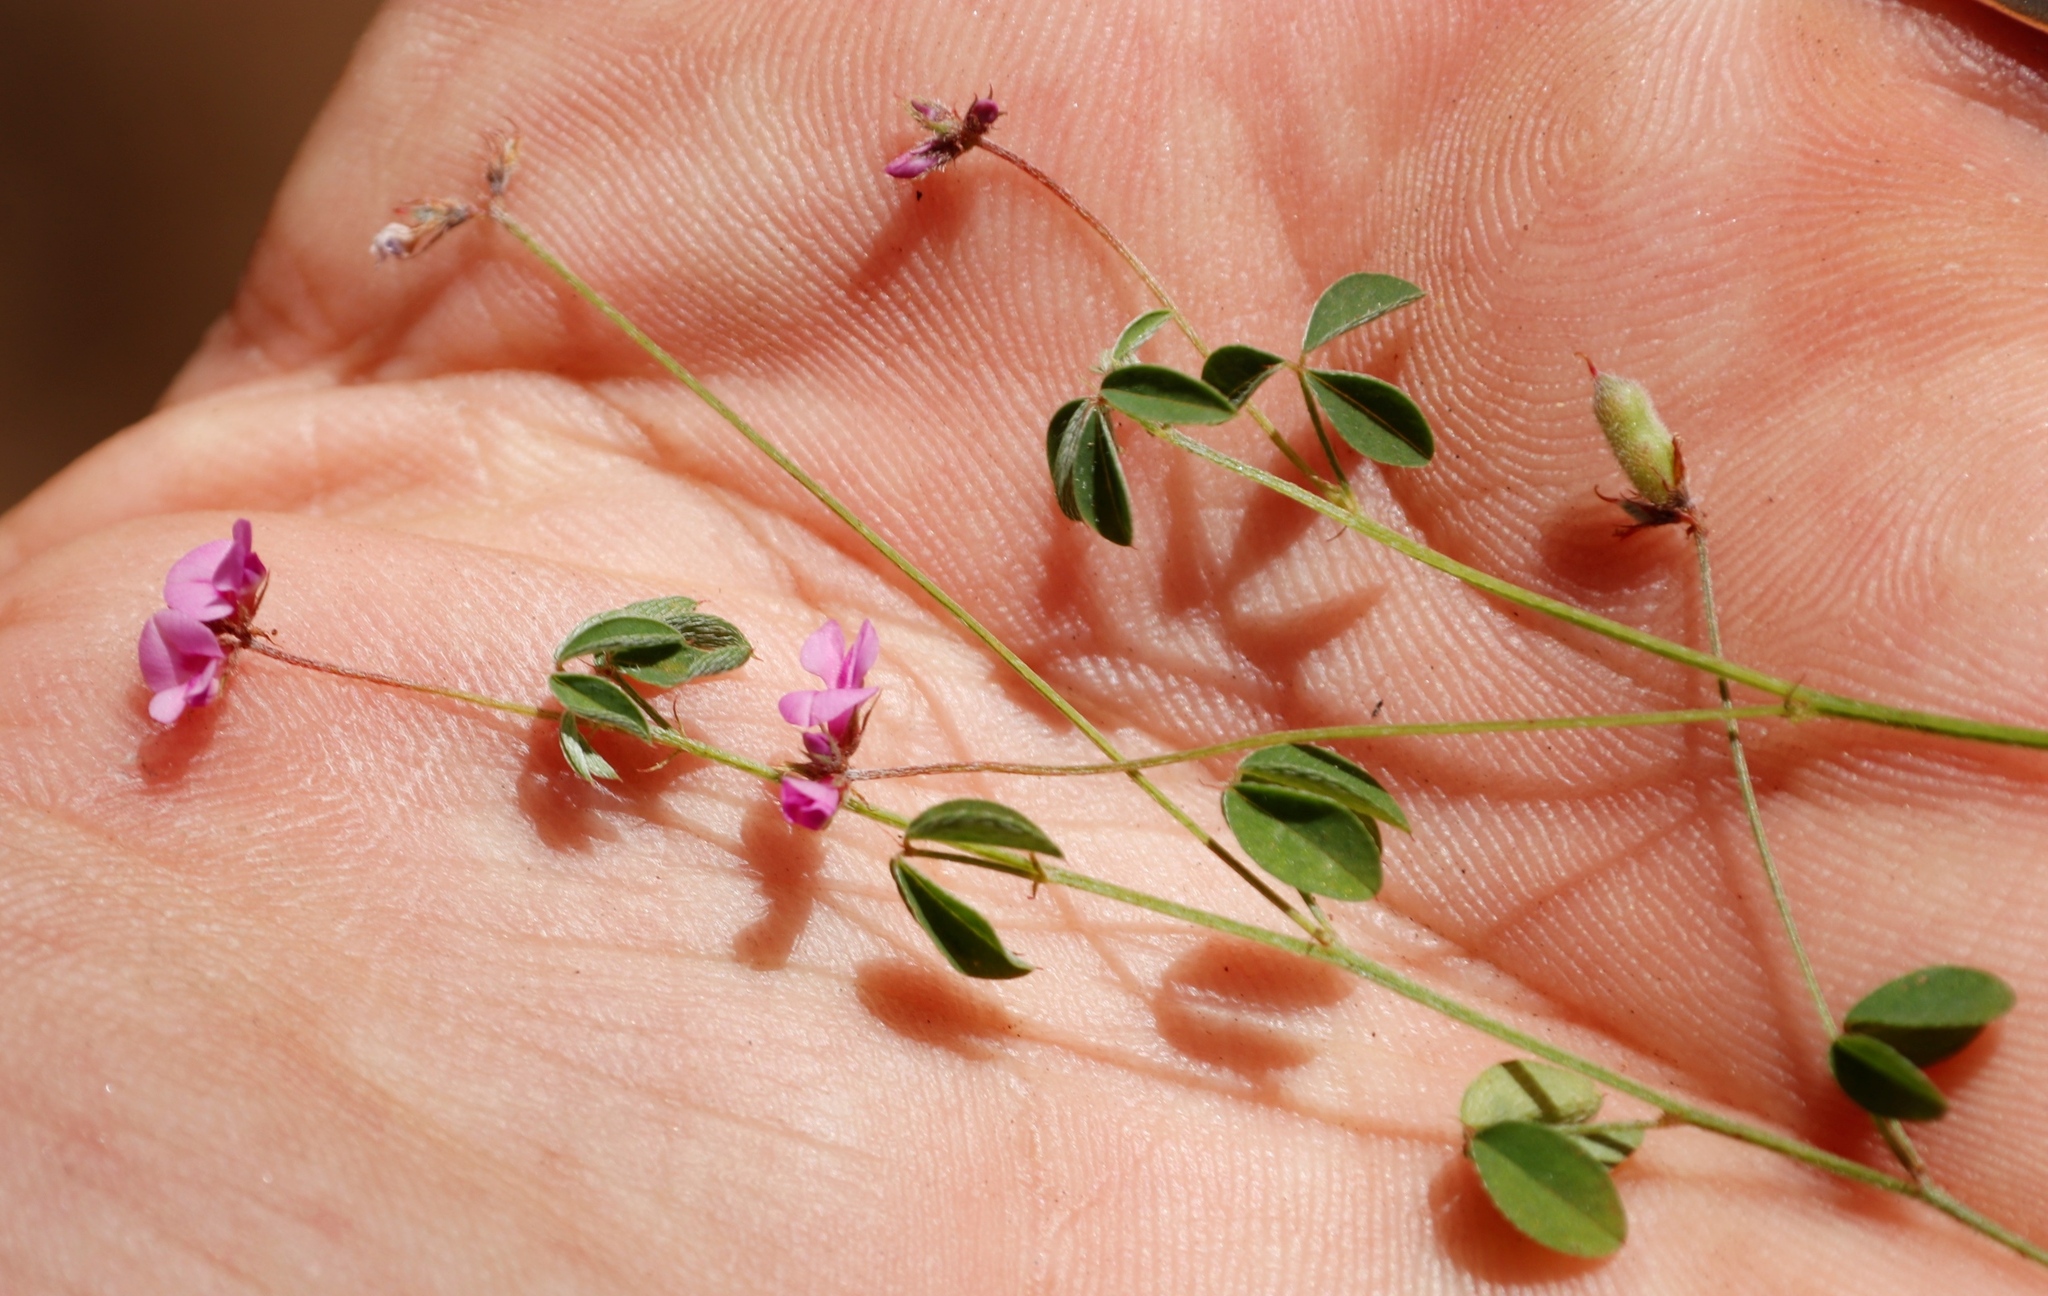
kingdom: Plantae
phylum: Tracheophyta
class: Magnoliopsida
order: Fabales
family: Fabaceae
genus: Indigofera
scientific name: Indigofera
